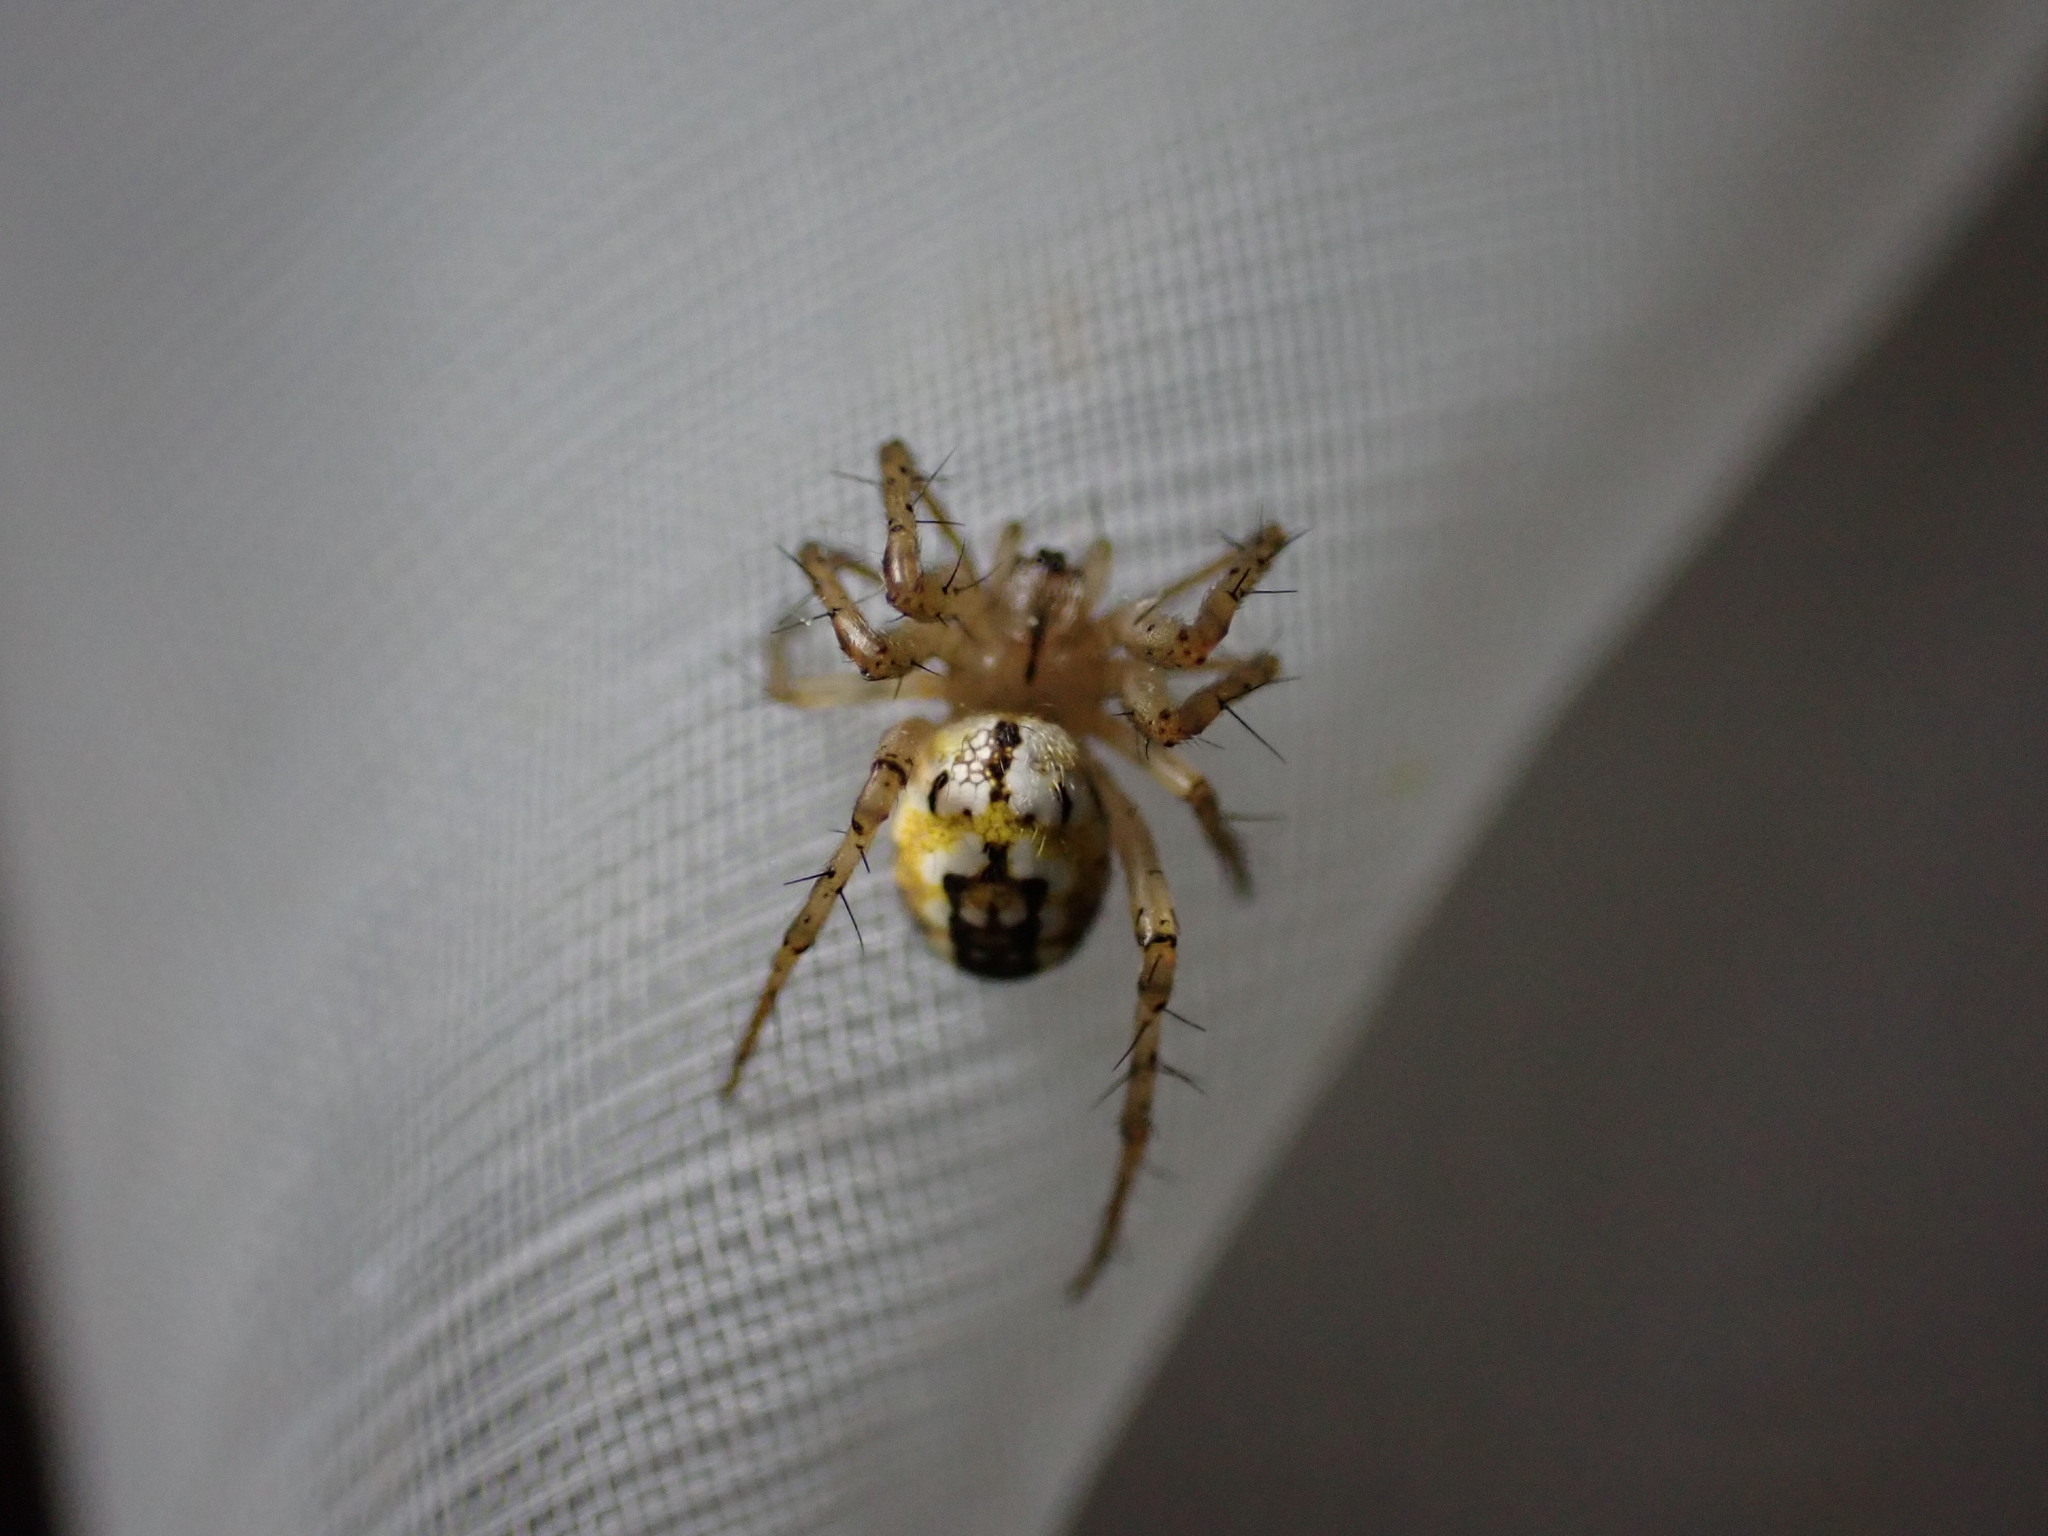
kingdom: Animalia
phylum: Arthropoda
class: Arachnida
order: Araneae
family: Araneidae
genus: Mangora
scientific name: Mangora acalypha
